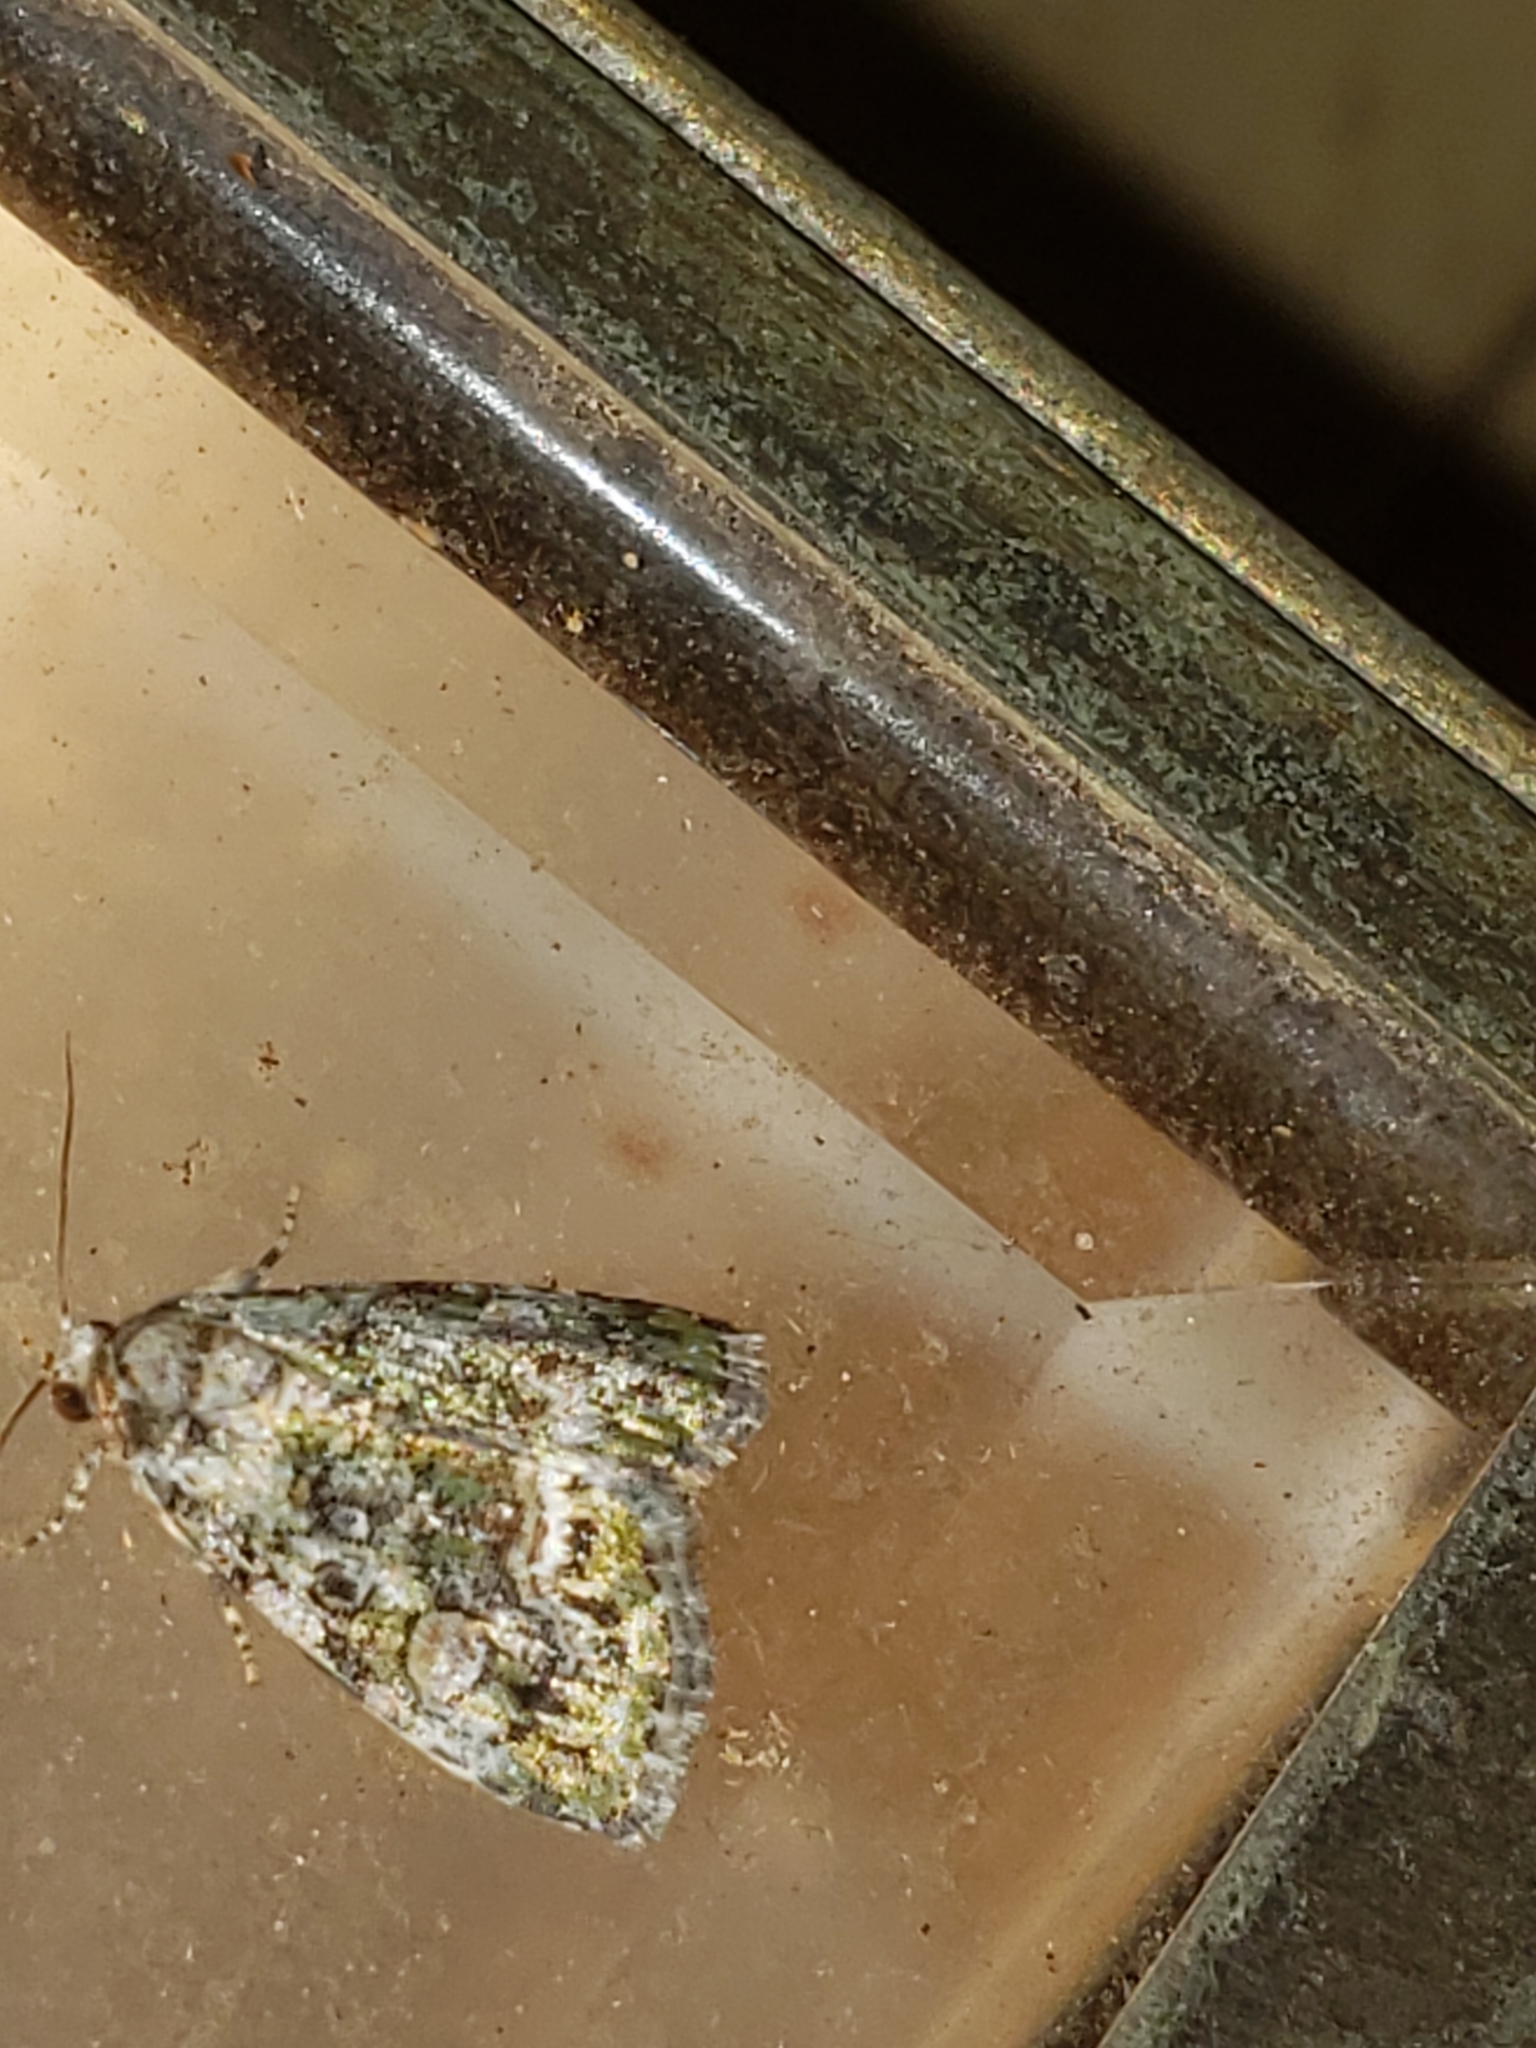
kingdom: Animalia
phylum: Arthropoda
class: Insecta
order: Lepidoptera
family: Noctuidae
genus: Lithacodia
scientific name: Lithacodia musta
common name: Small mossy glyph
